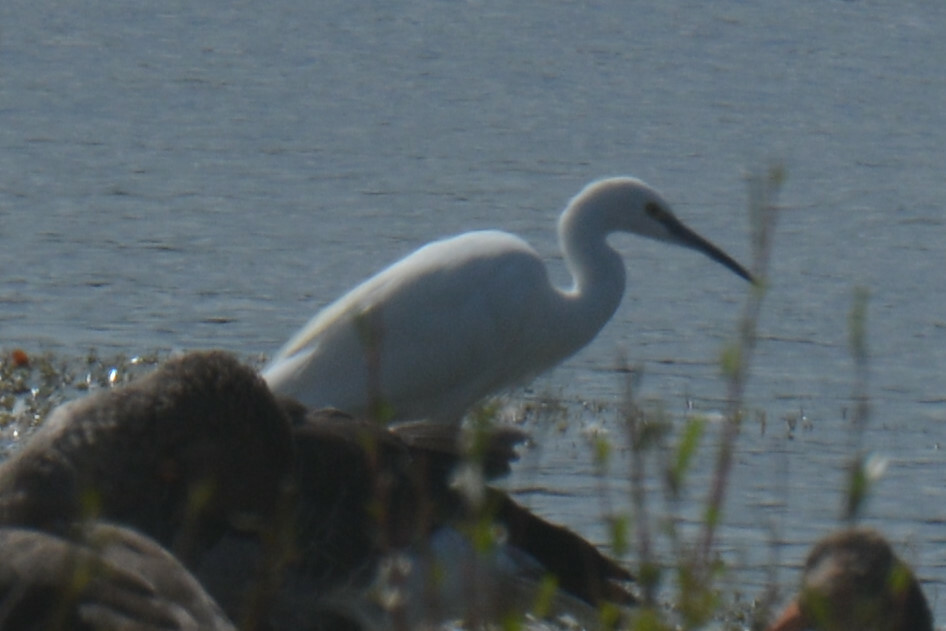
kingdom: Animalia
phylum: Chordata
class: Aves
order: Pelecaniformes
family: Ardeidae
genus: Egretta
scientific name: Egretta garzetta
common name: Little egret
